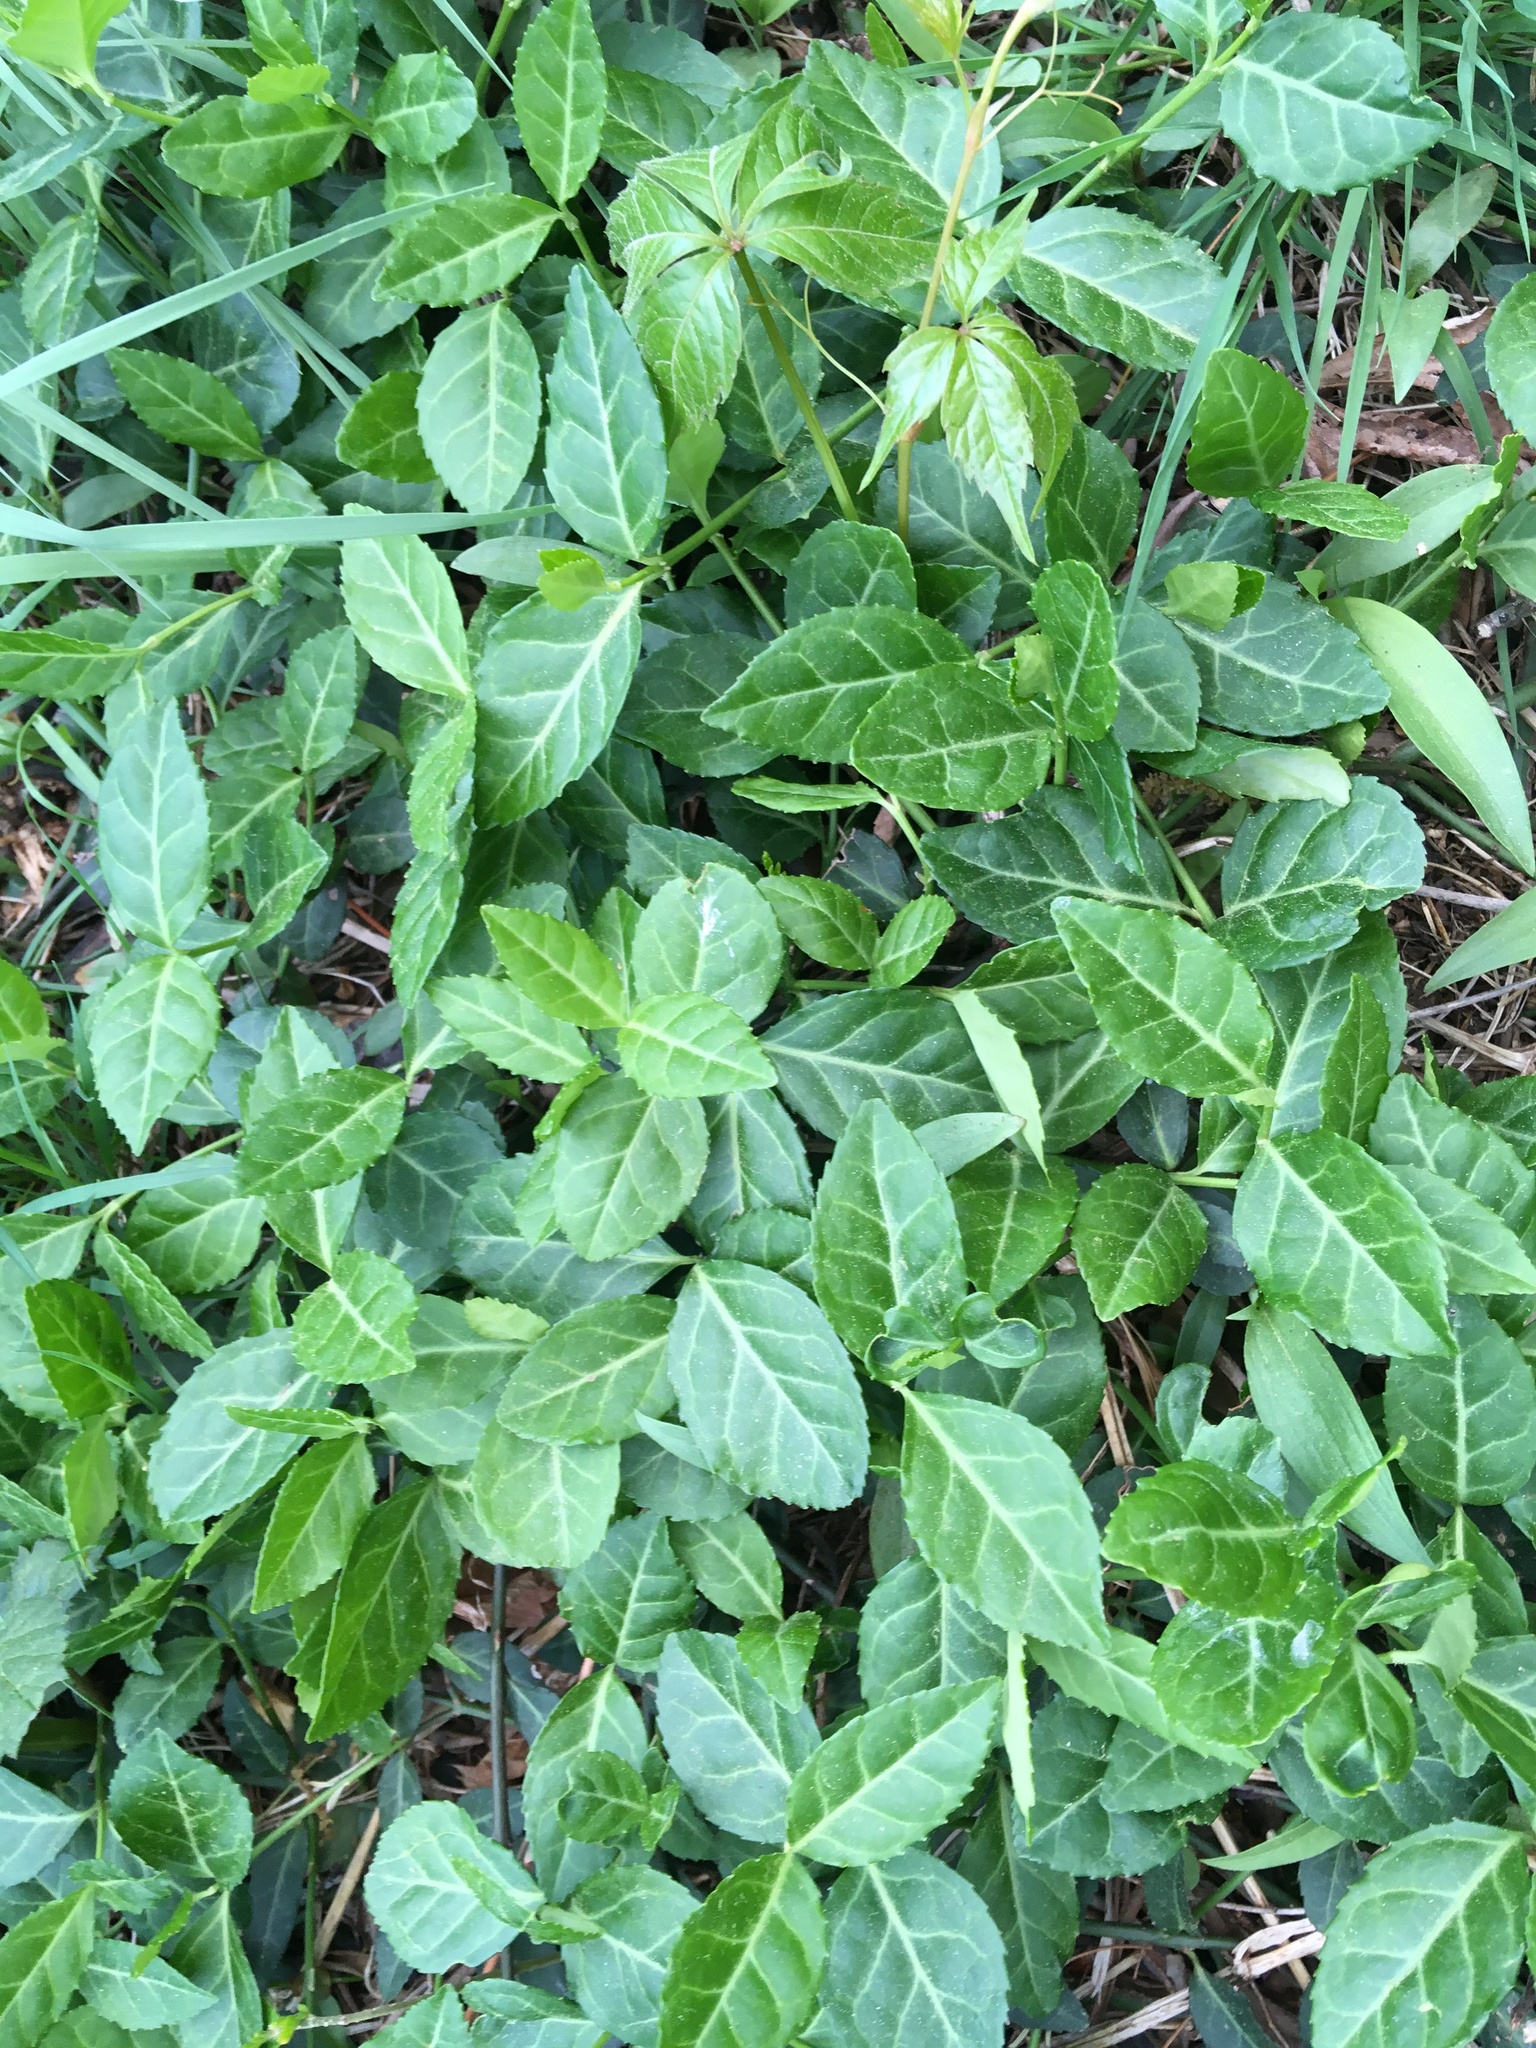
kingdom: Plantae
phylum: Tracheophyta
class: Magnoliopsida
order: Celastrales
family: Celastraceae
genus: Euonymus
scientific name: Euonymus fortunei
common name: Climbing euonymus
